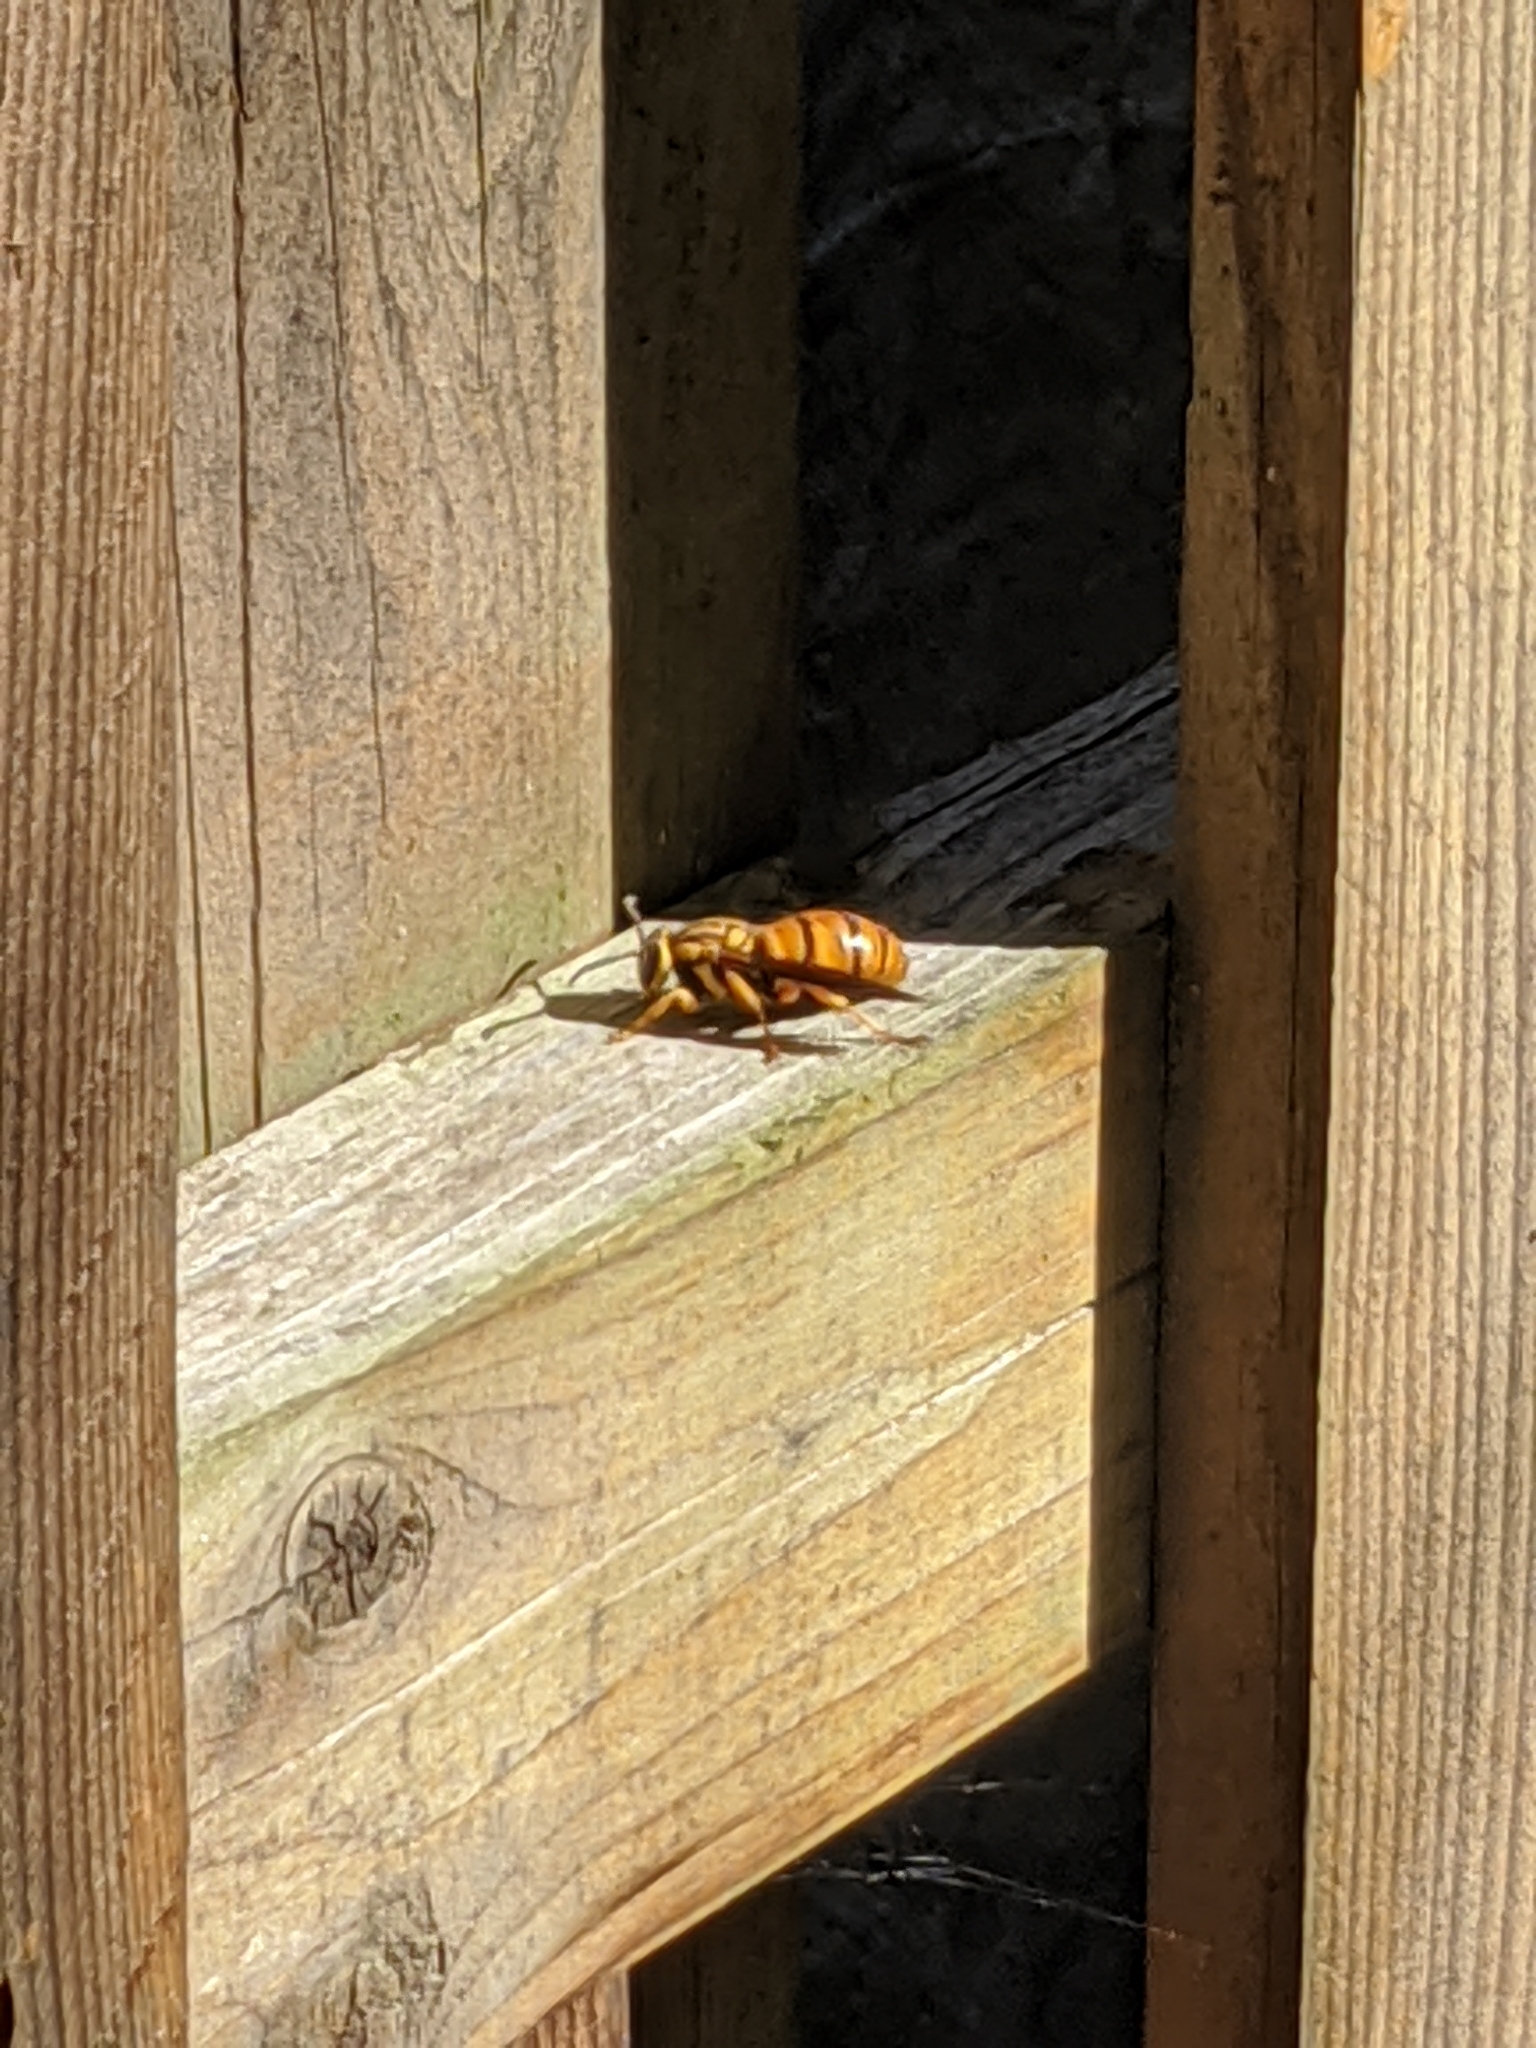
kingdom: Animalia
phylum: Arthropoda
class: Insecta
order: Hymenoptera
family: Vespidae
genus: Vespula
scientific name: Vespula squamosa
